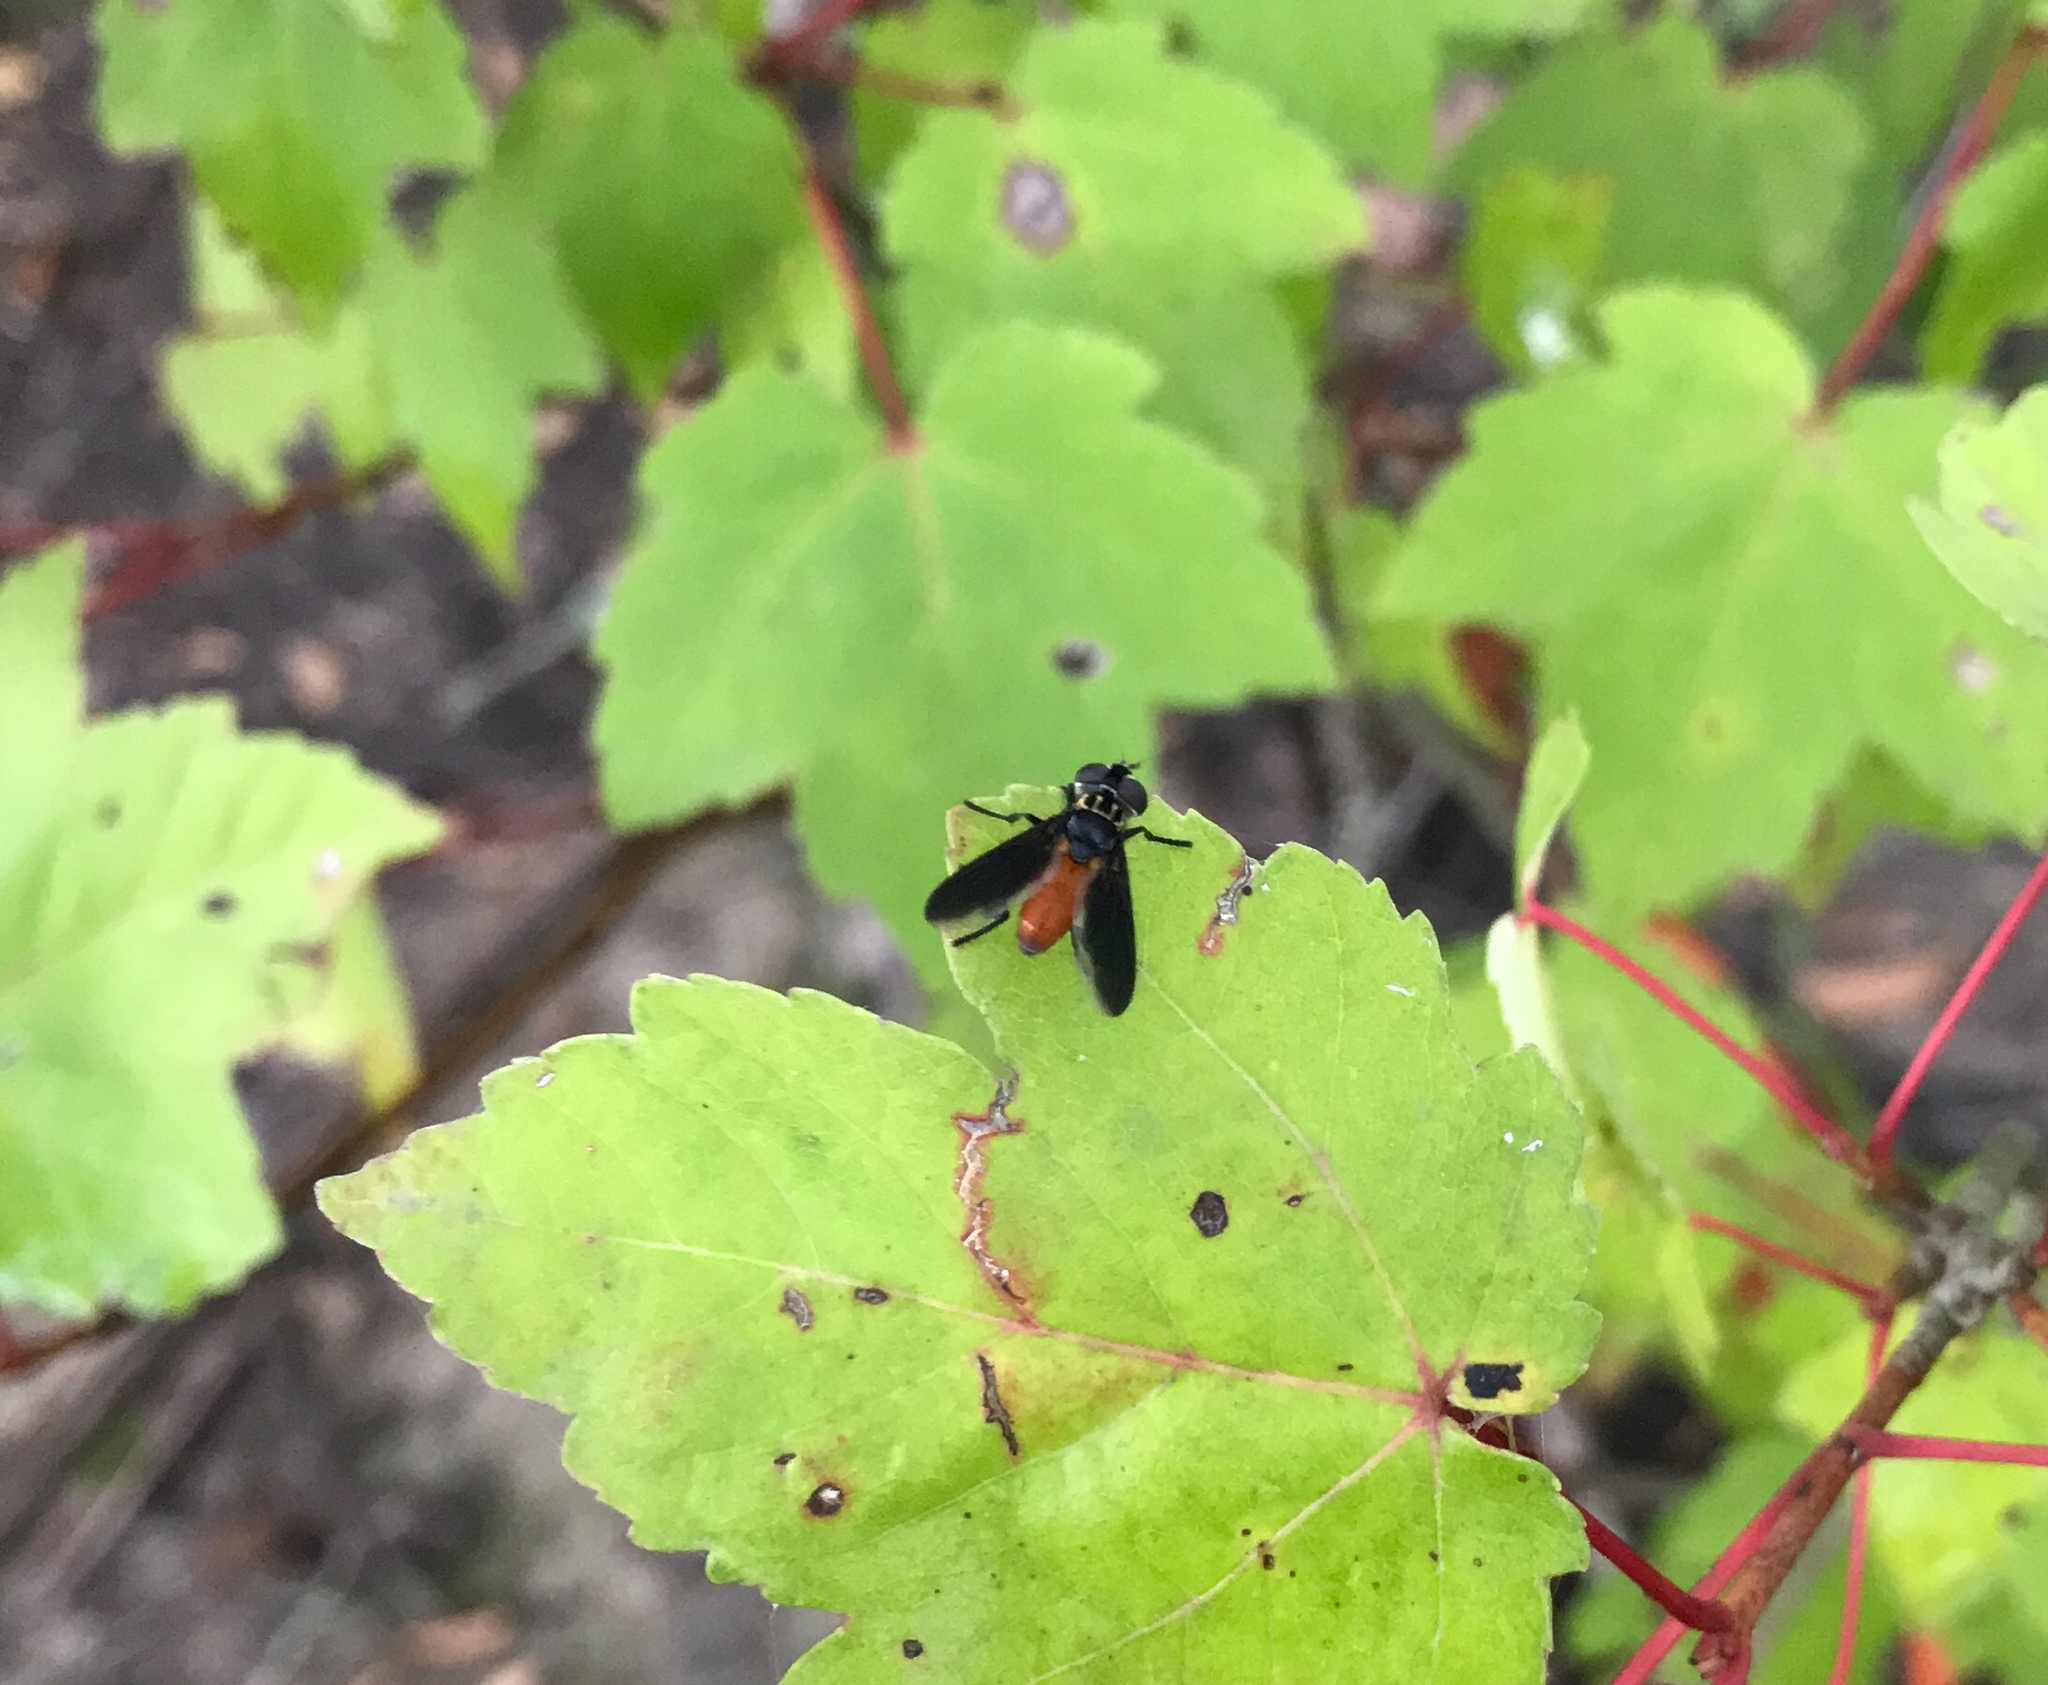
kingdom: Animalia
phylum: Arthropoda
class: Insecta
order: Diptera
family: Tachinidae
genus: Trichopoda
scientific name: Trichopoda pennipes
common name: Tachinid fly
